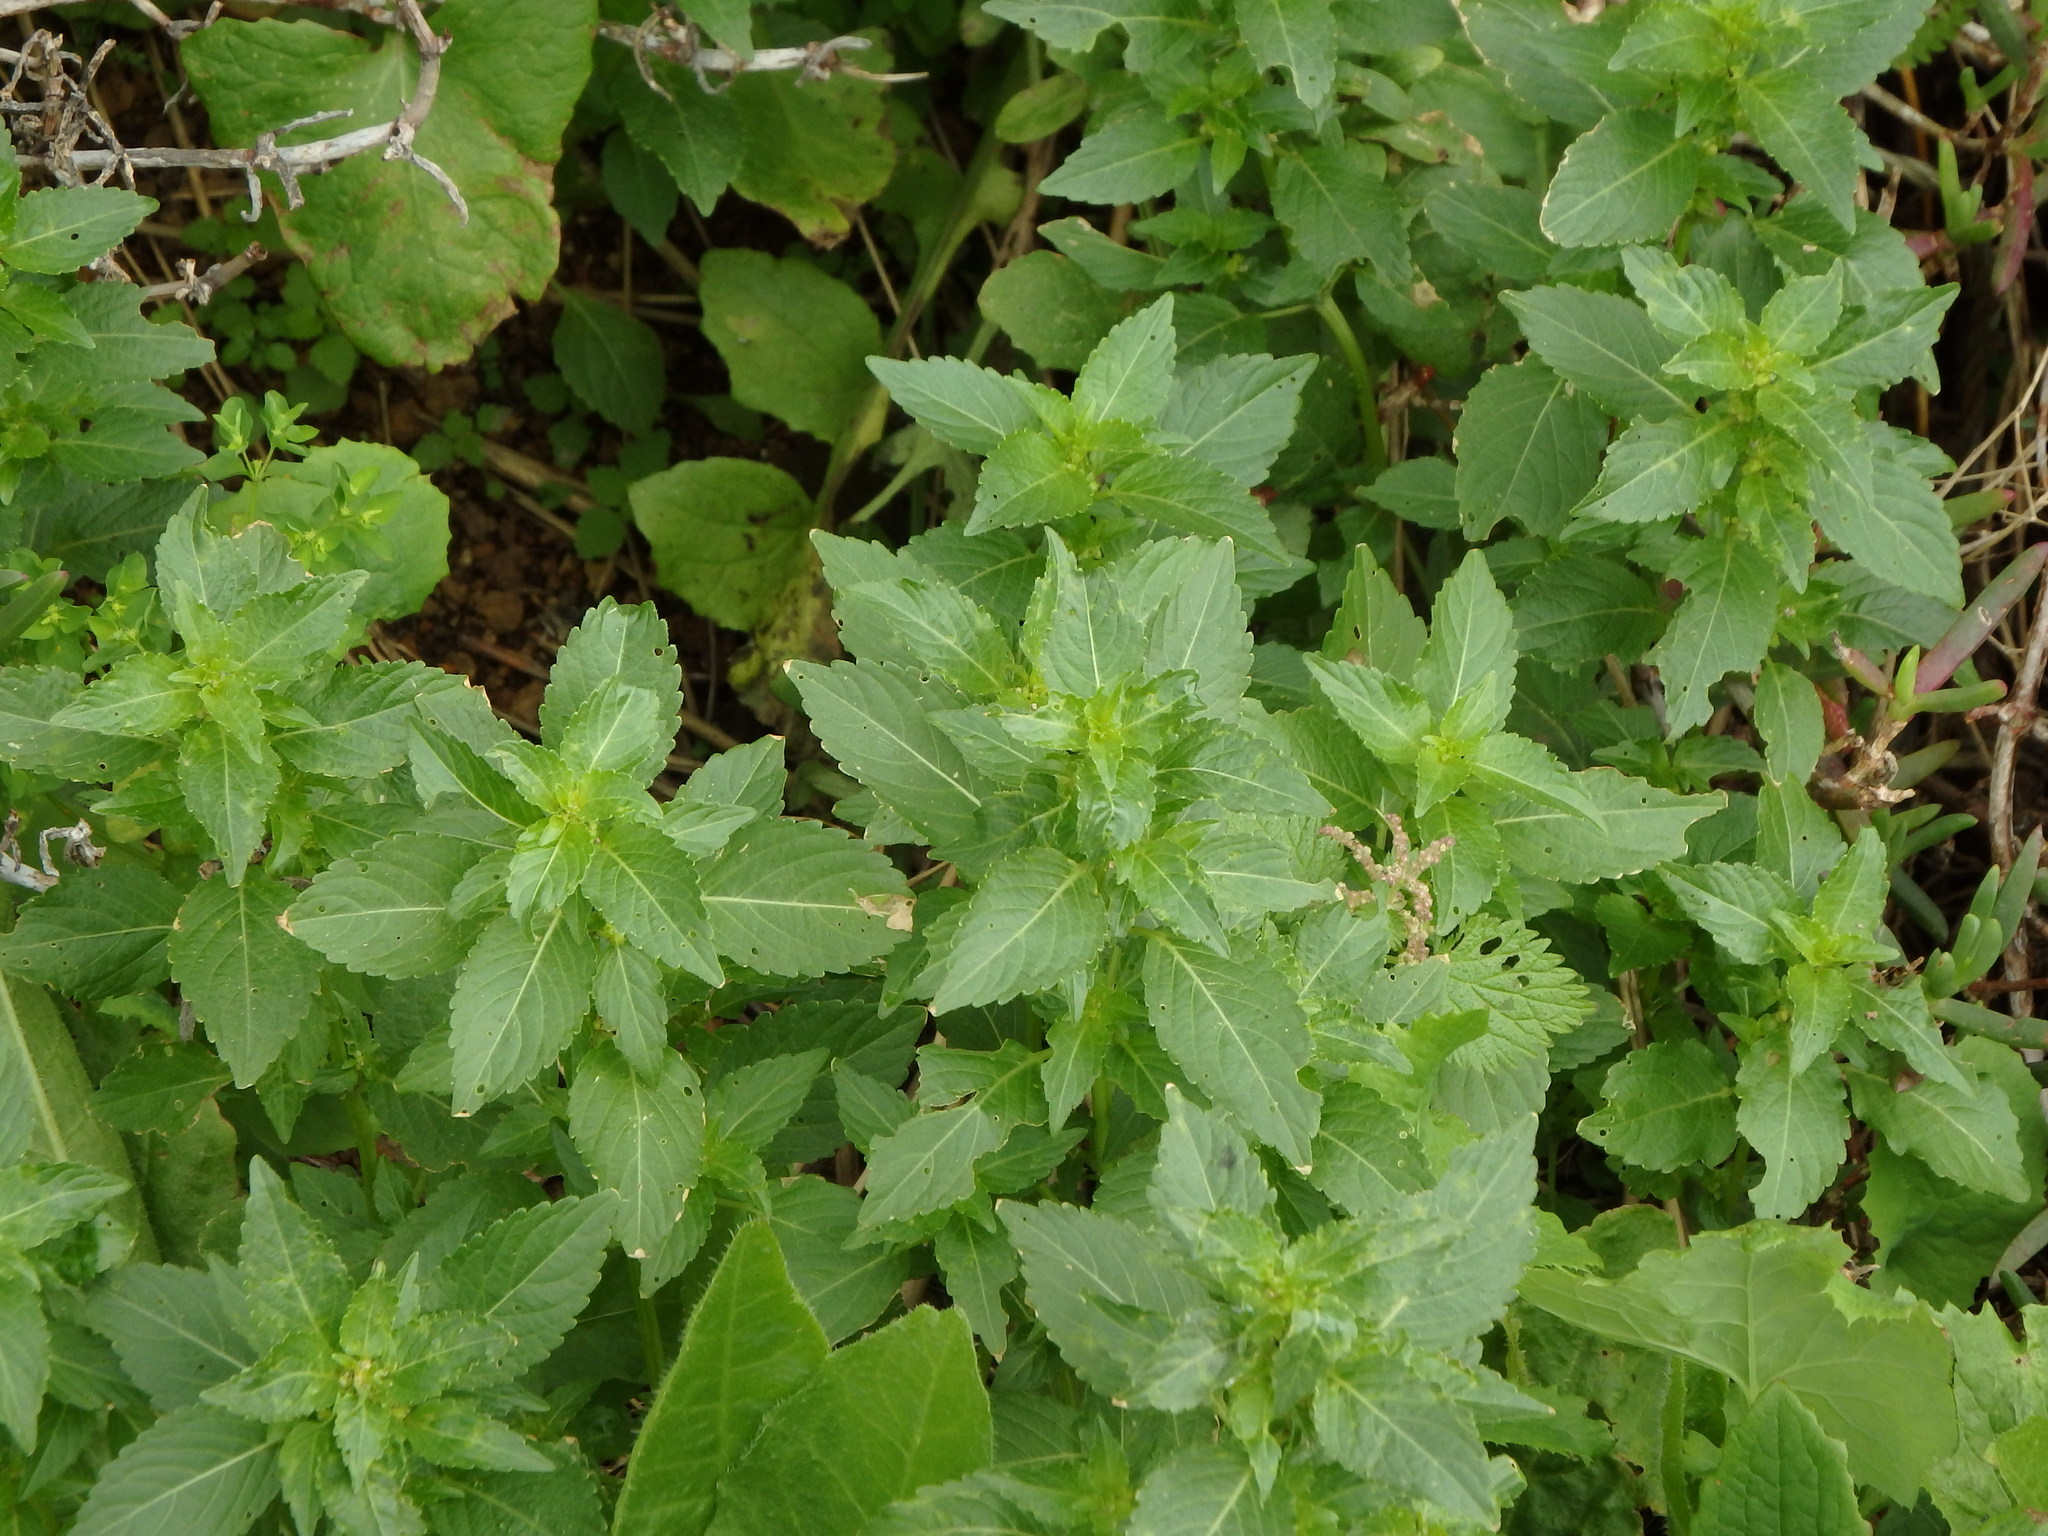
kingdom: Plantae
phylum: Tracheophyta
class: Magnoliopsida
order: Malpighiales
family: Euphorbiaceae
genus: Mercurialis
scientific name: Mercurialis annua
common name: Annual mercury
